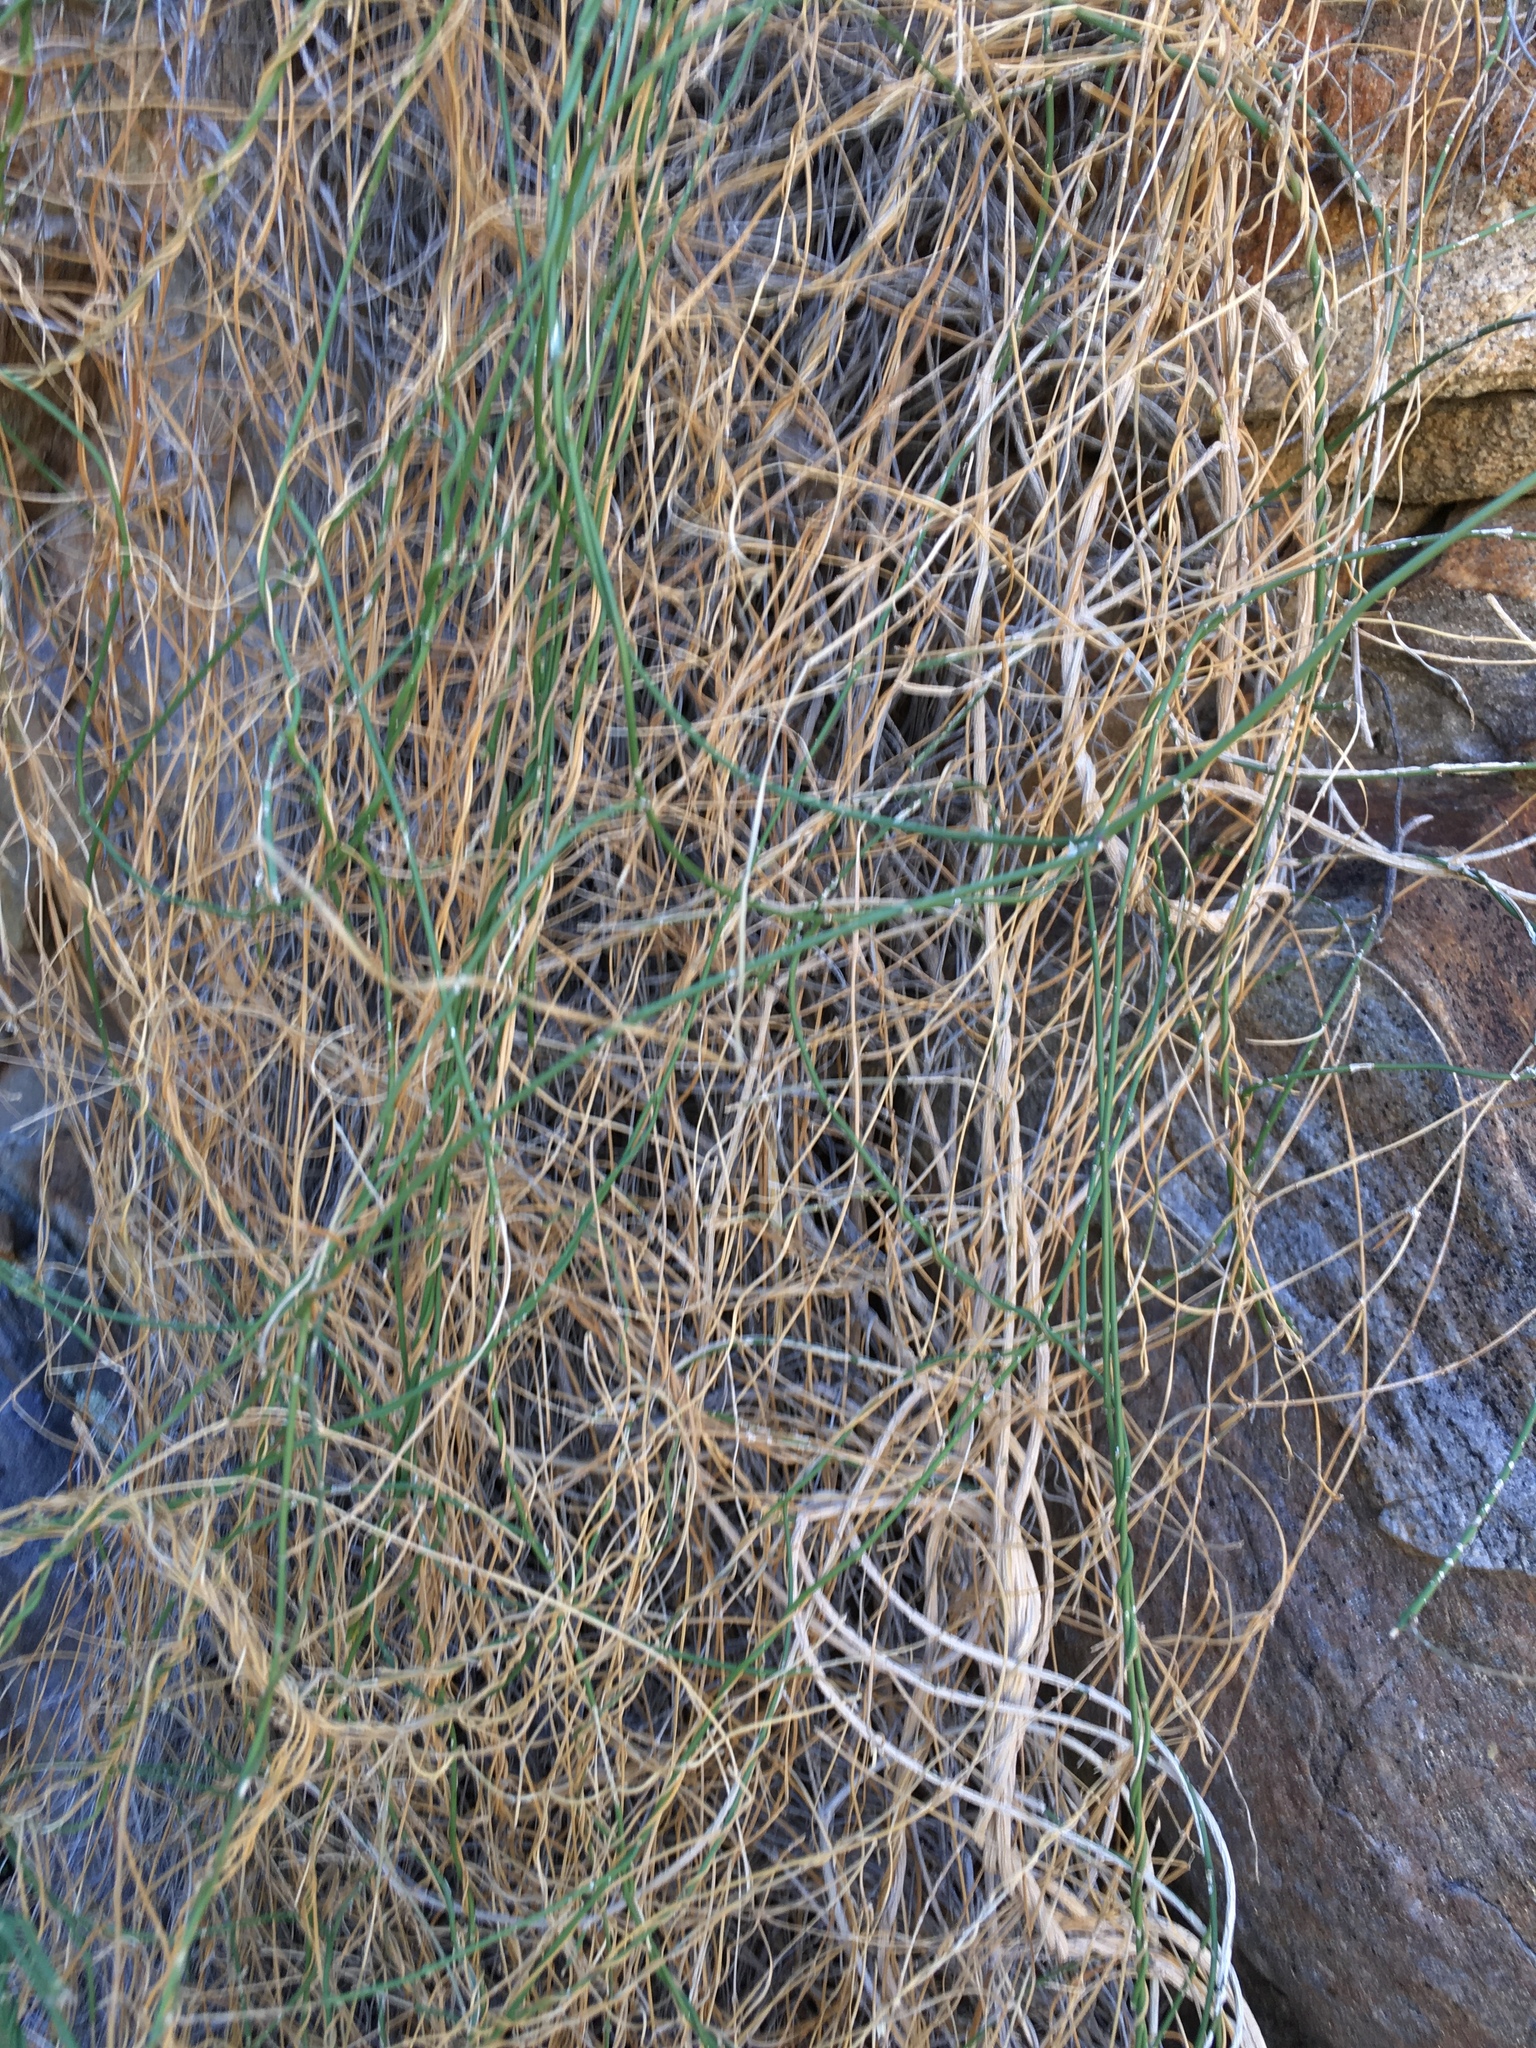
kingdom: Plantae
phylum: Tracheophyta
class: Magnoliopsida
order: Gentianales
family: Apocynaceae
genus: Funastrum
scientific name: Funastrum heterophyllum
